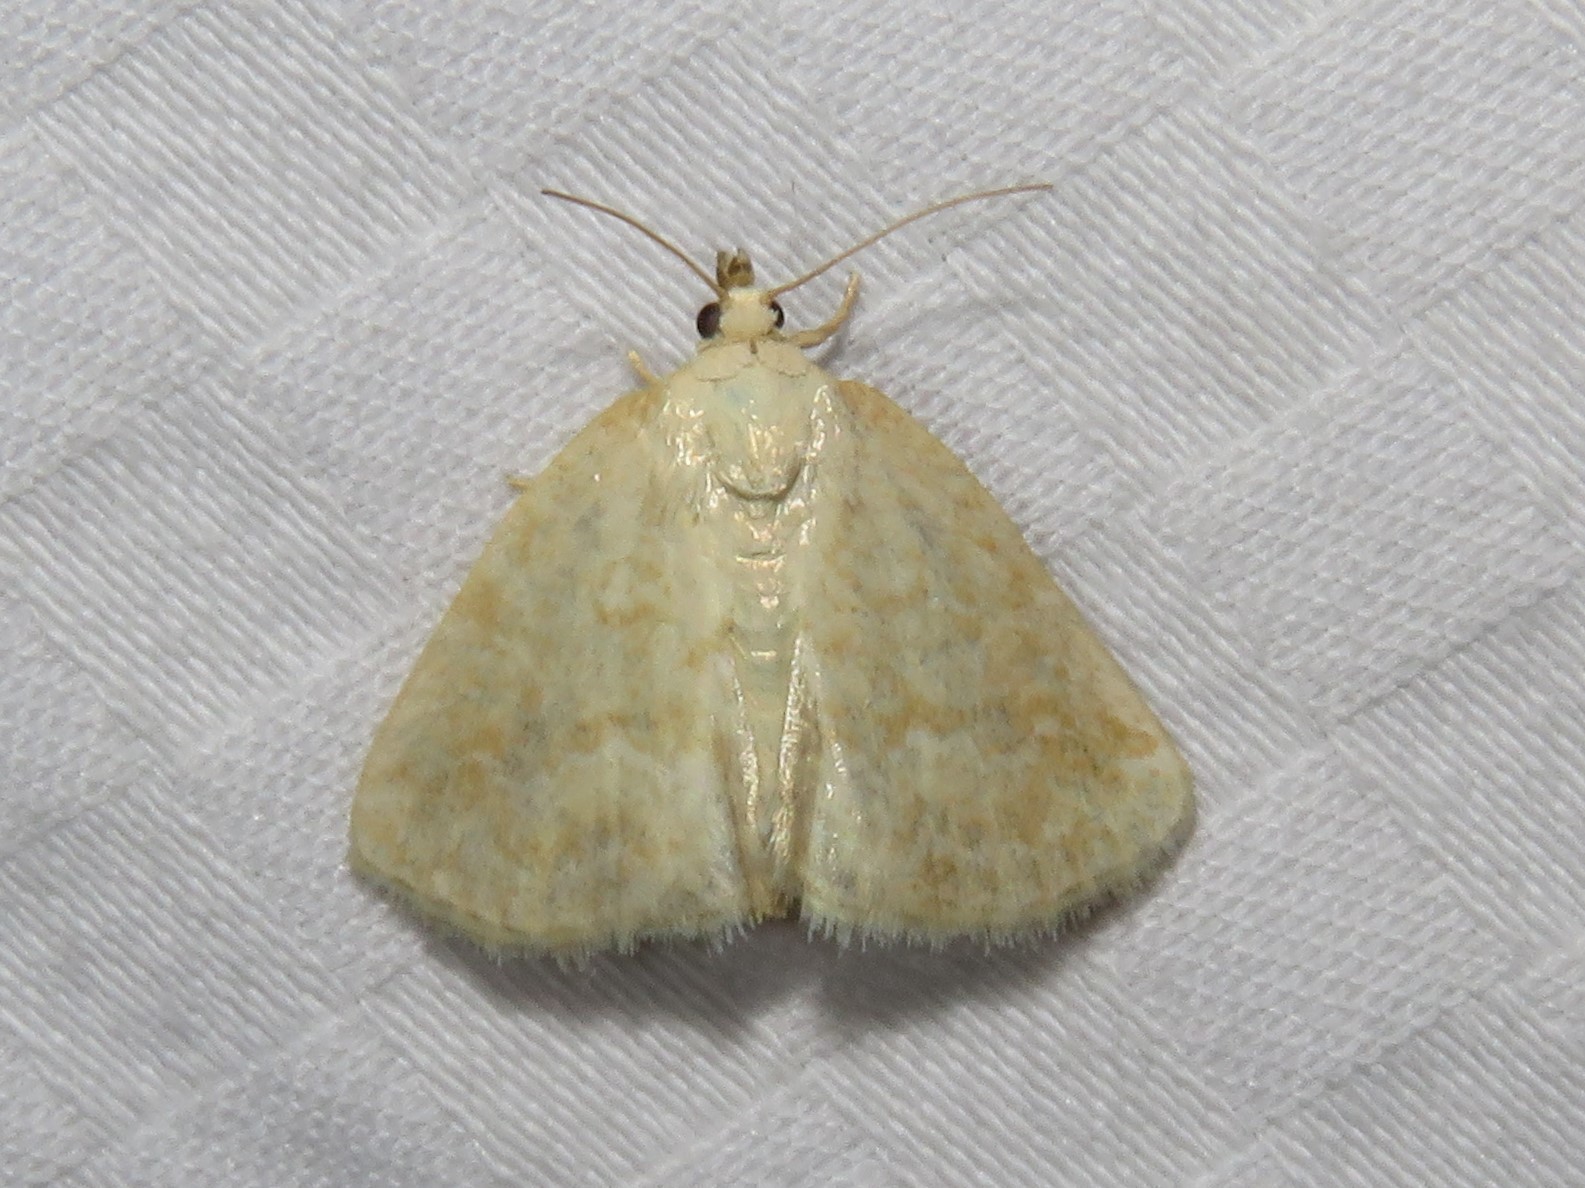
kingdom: Animalia
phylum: Arthropoda
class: Insecta
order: Lepidoptera
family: Noctuidae
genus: Protodeltote
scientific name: Protodeltote albidula
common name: Pale glyph
